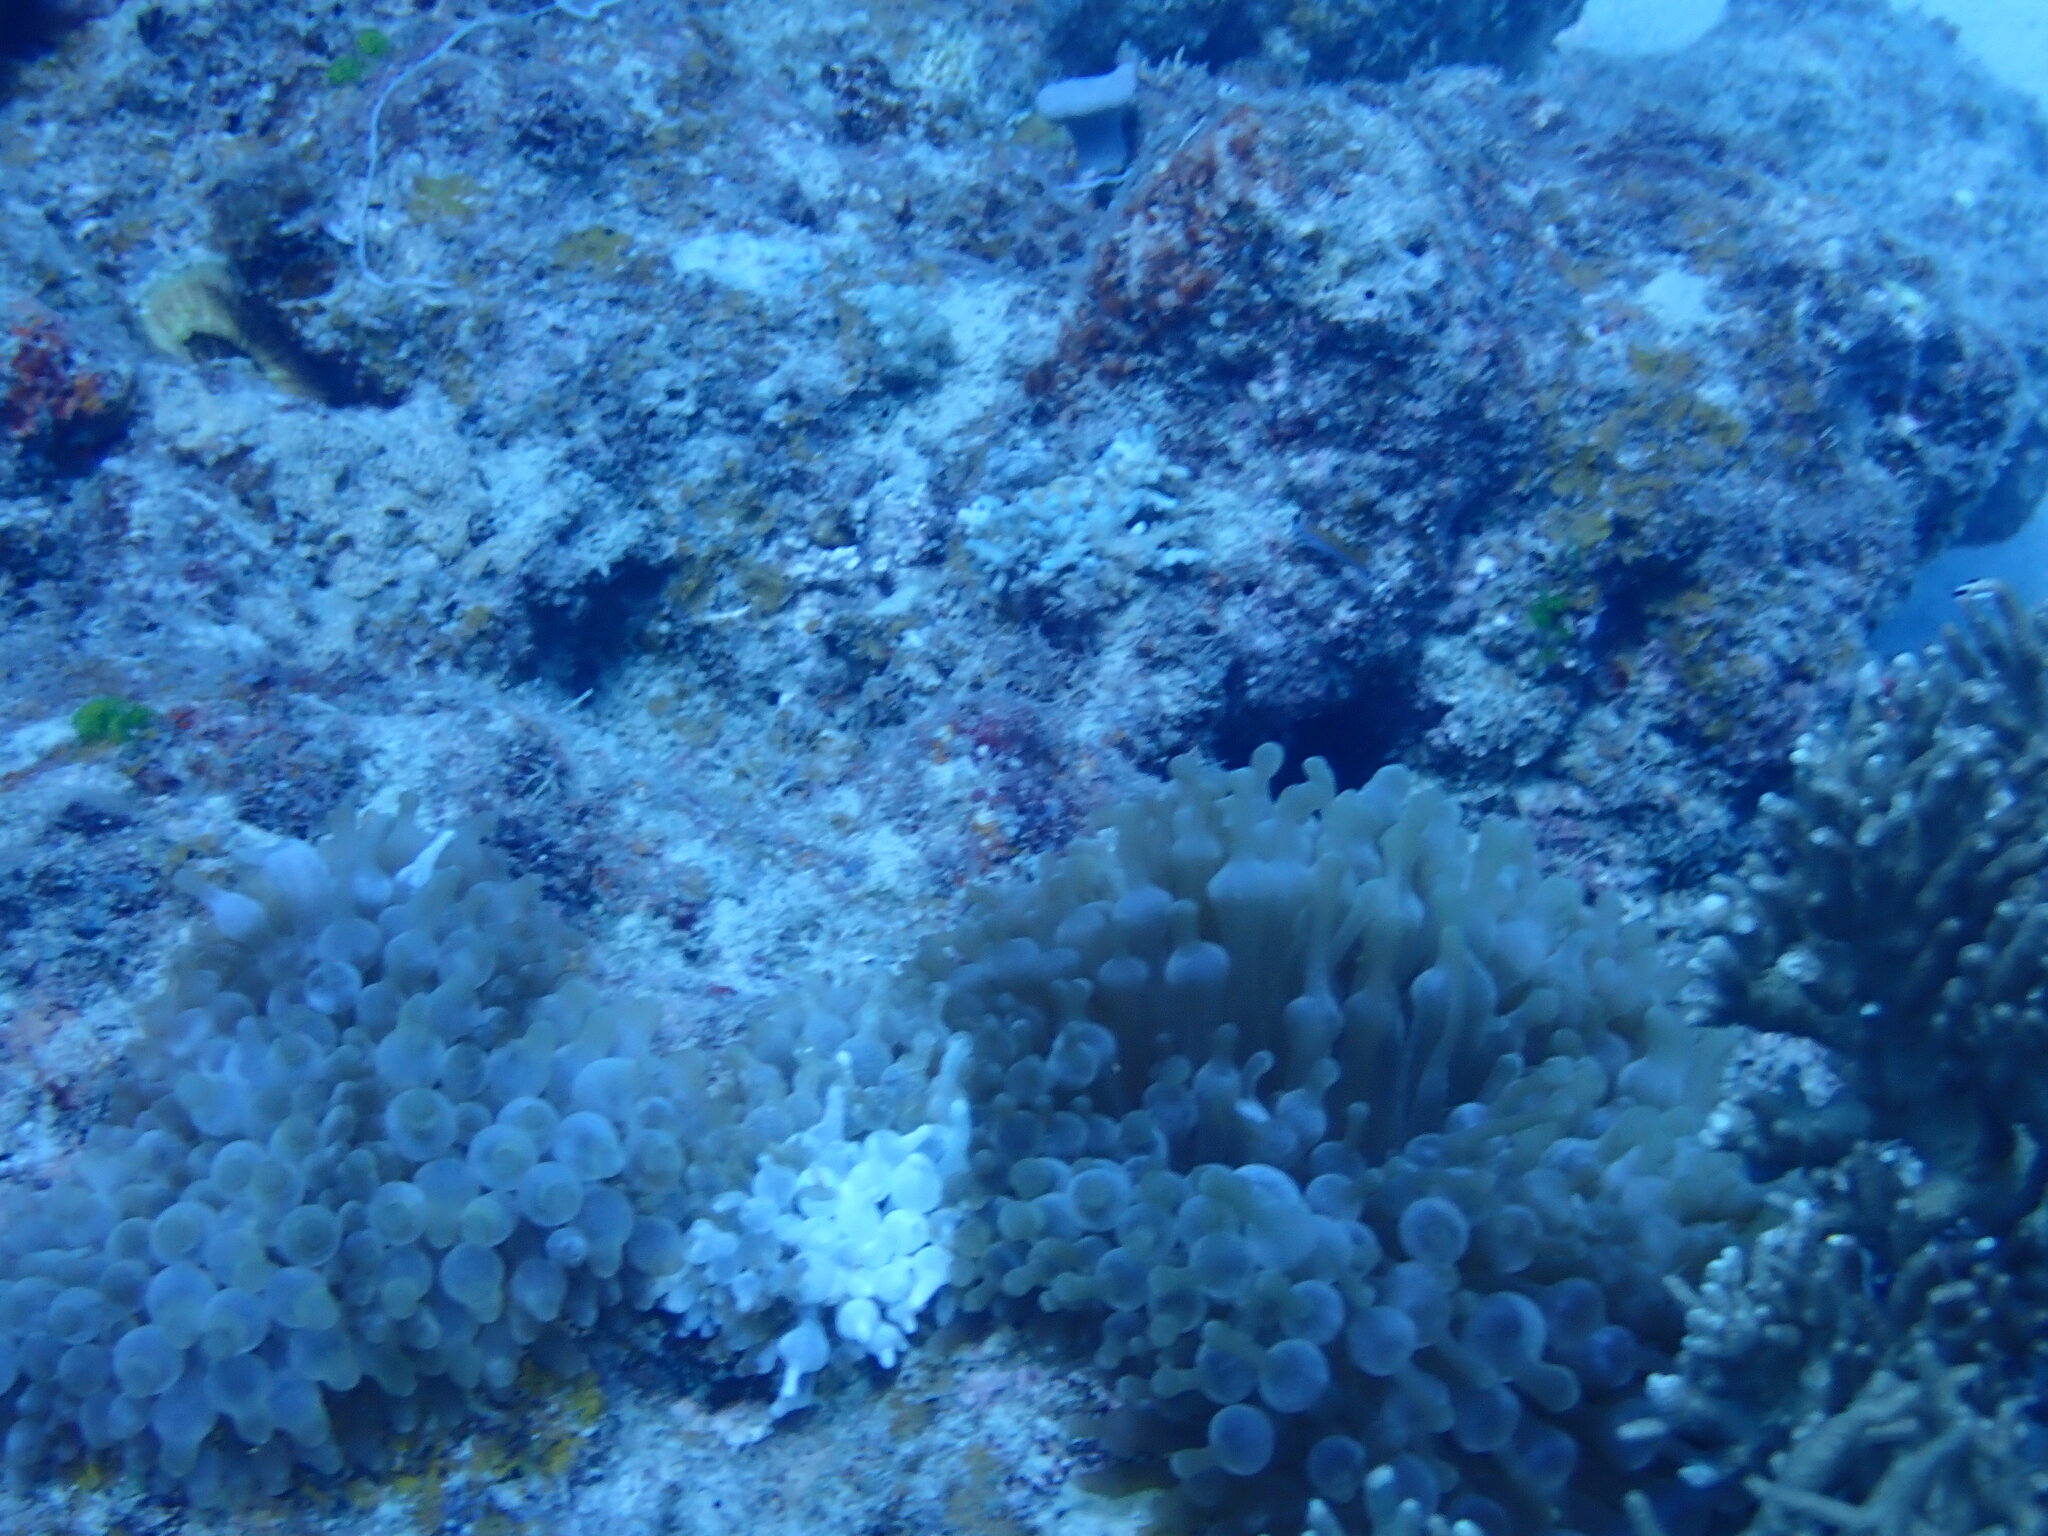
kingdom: Animalia
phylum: Cnidaria
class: Anthozoa
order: Actiniaria
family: Actiniidae
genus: Entacmaea
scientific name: Entacmaea quadricolor
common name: Bulb tentacle sea anemone
